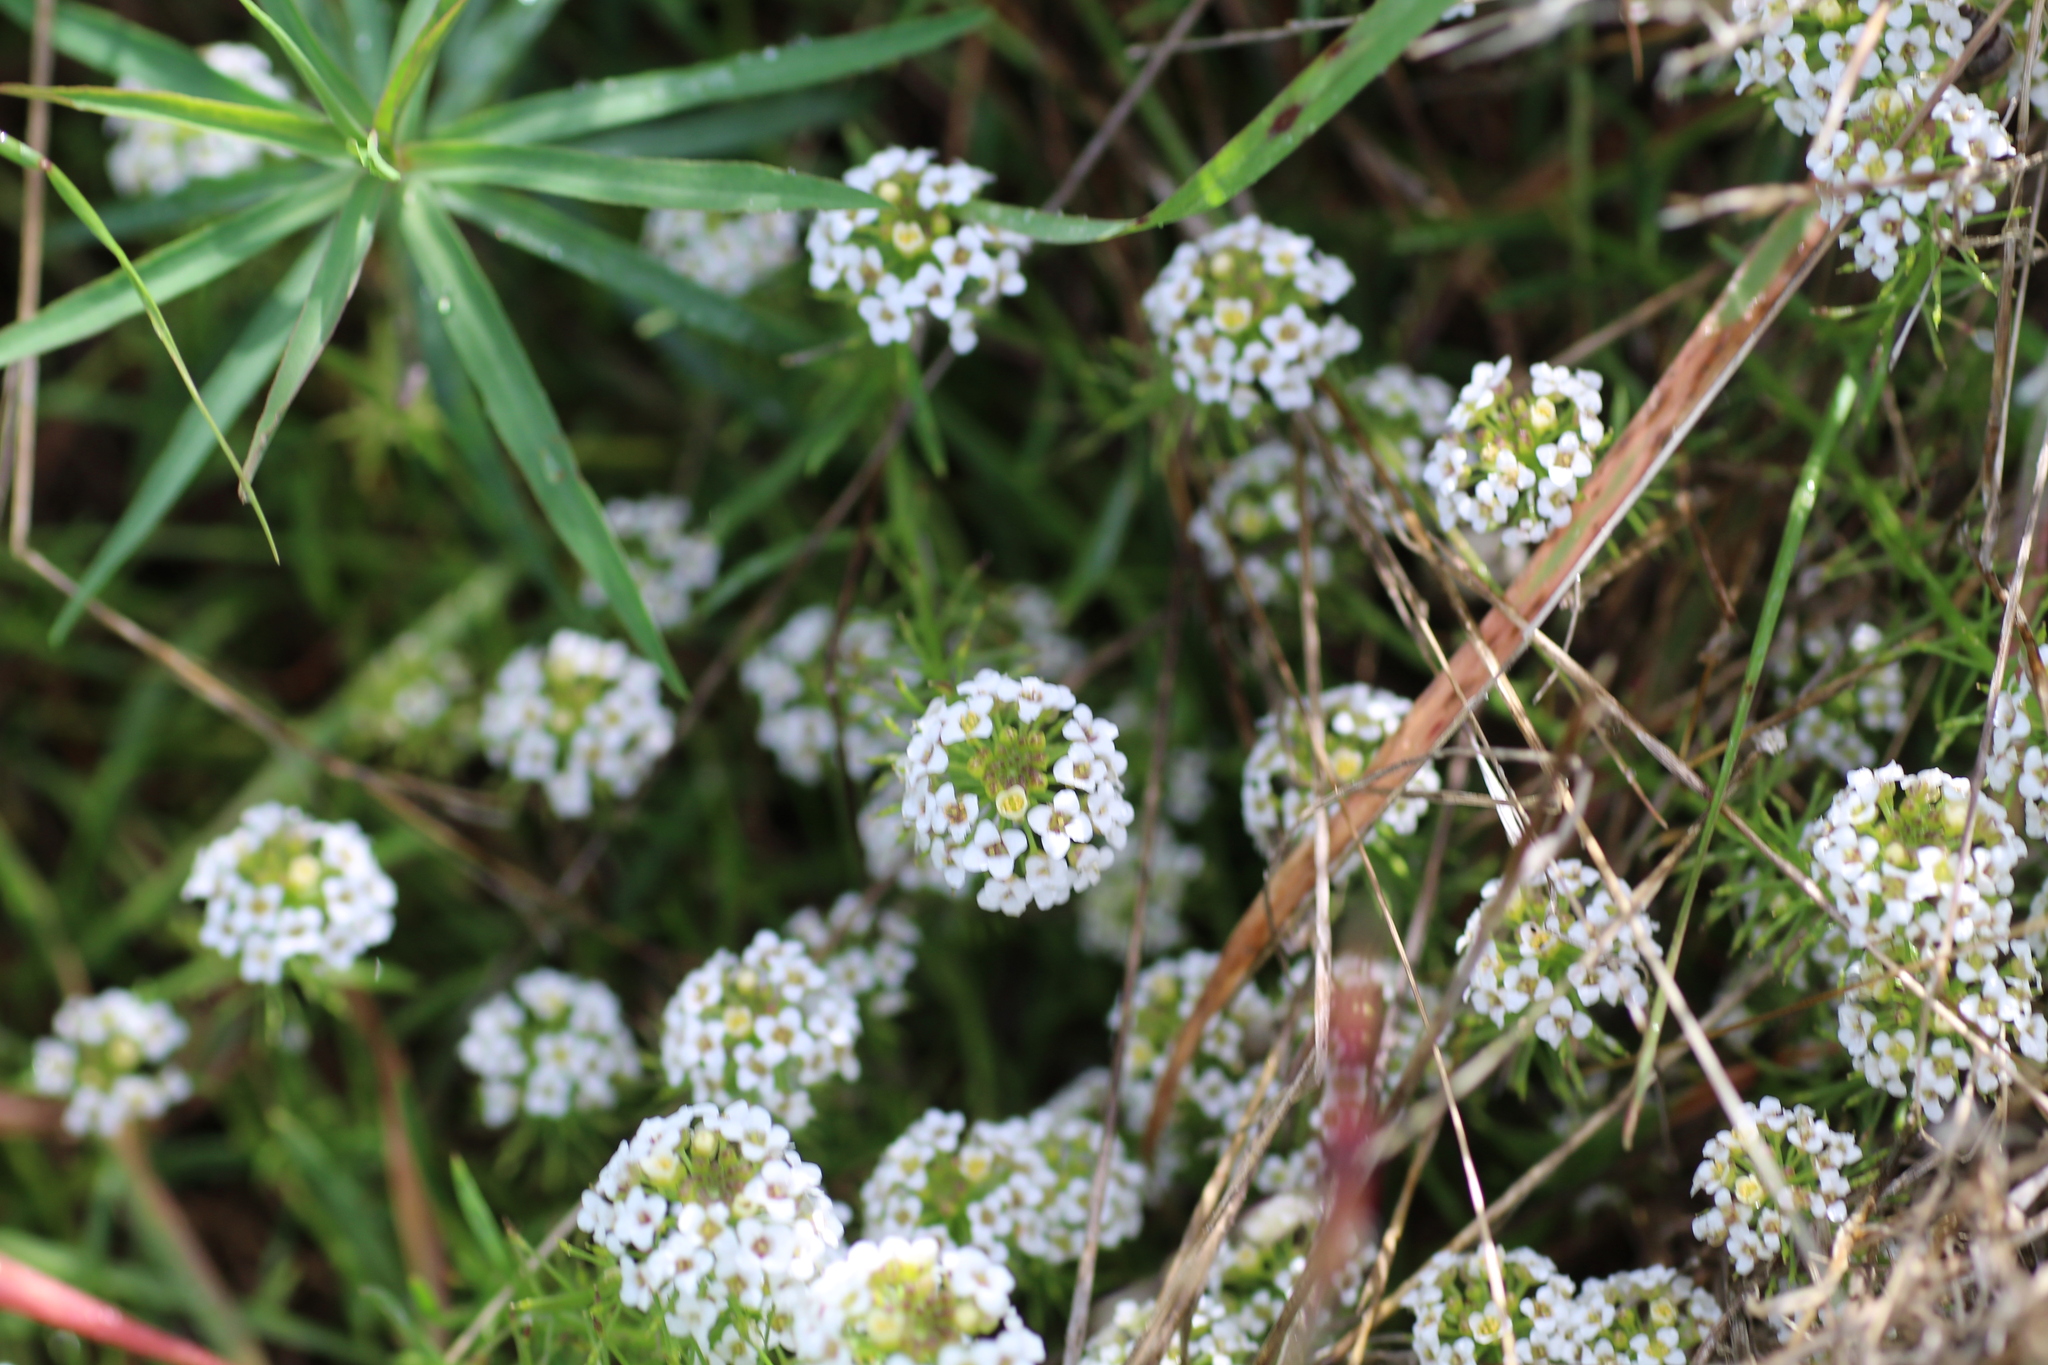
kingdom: Plantae
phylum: Tracheophyta
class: Magnoliopsida
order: Brassicales
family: Brassicaceae
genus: Lobularia
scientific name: Lobularia maritima
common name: Sweet alison
